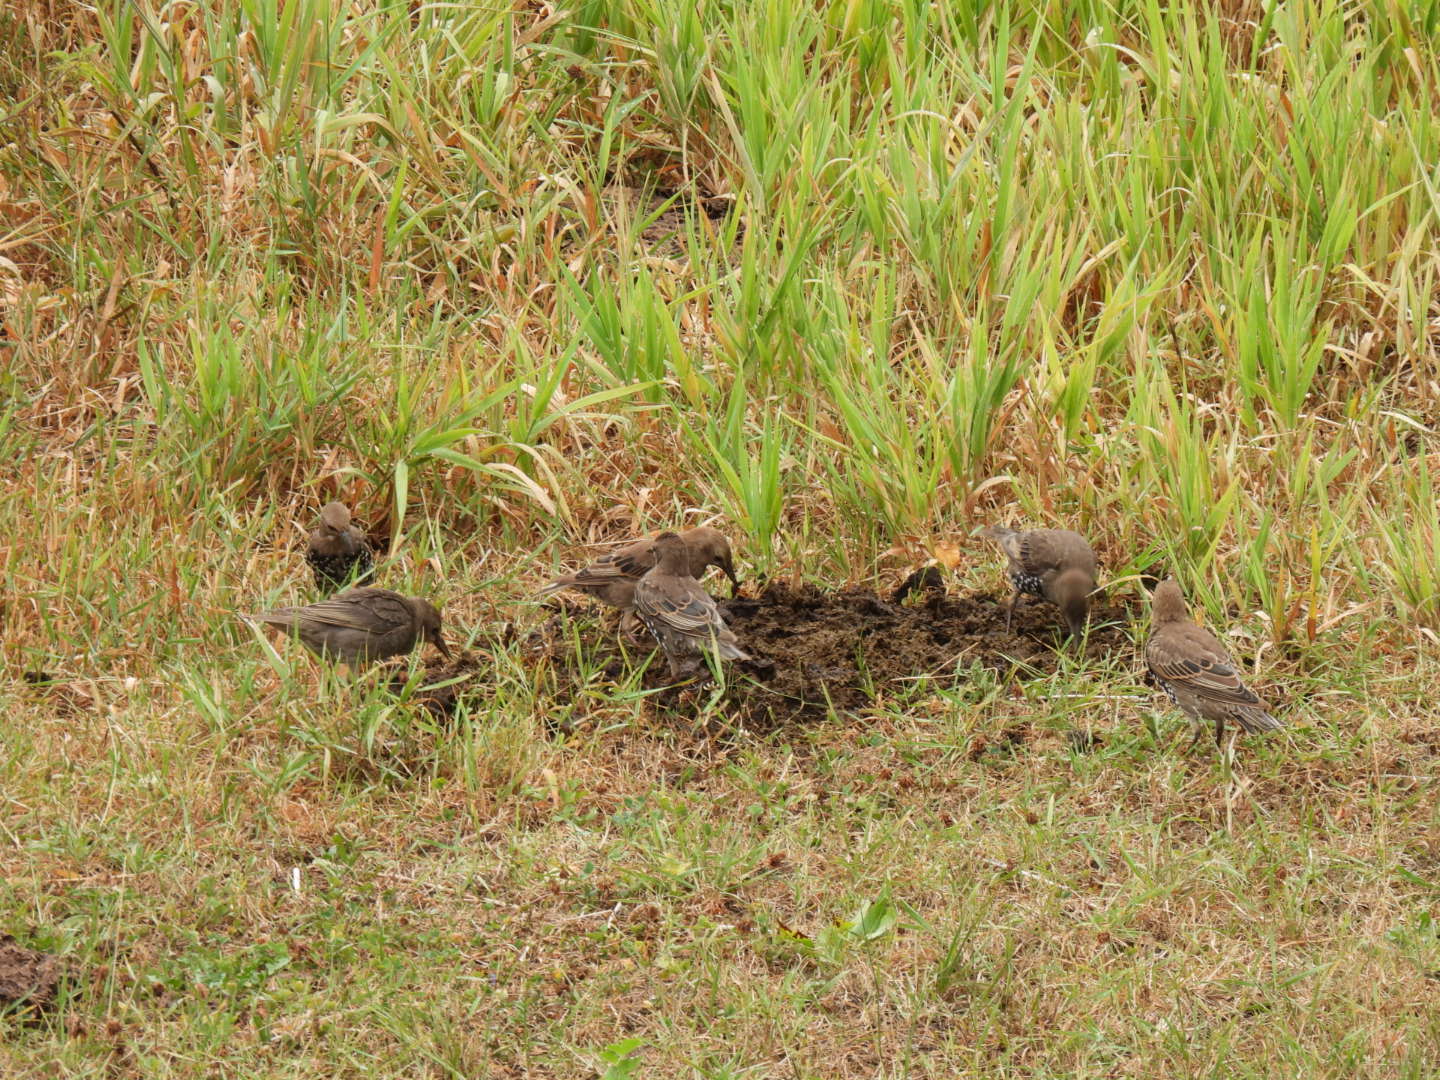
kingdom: Animalia
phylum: Chordata
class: Aves
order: Passeriformes
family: Sturnidae
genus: Sturnus
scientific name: Sturnus vulgaris
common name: Common starling
